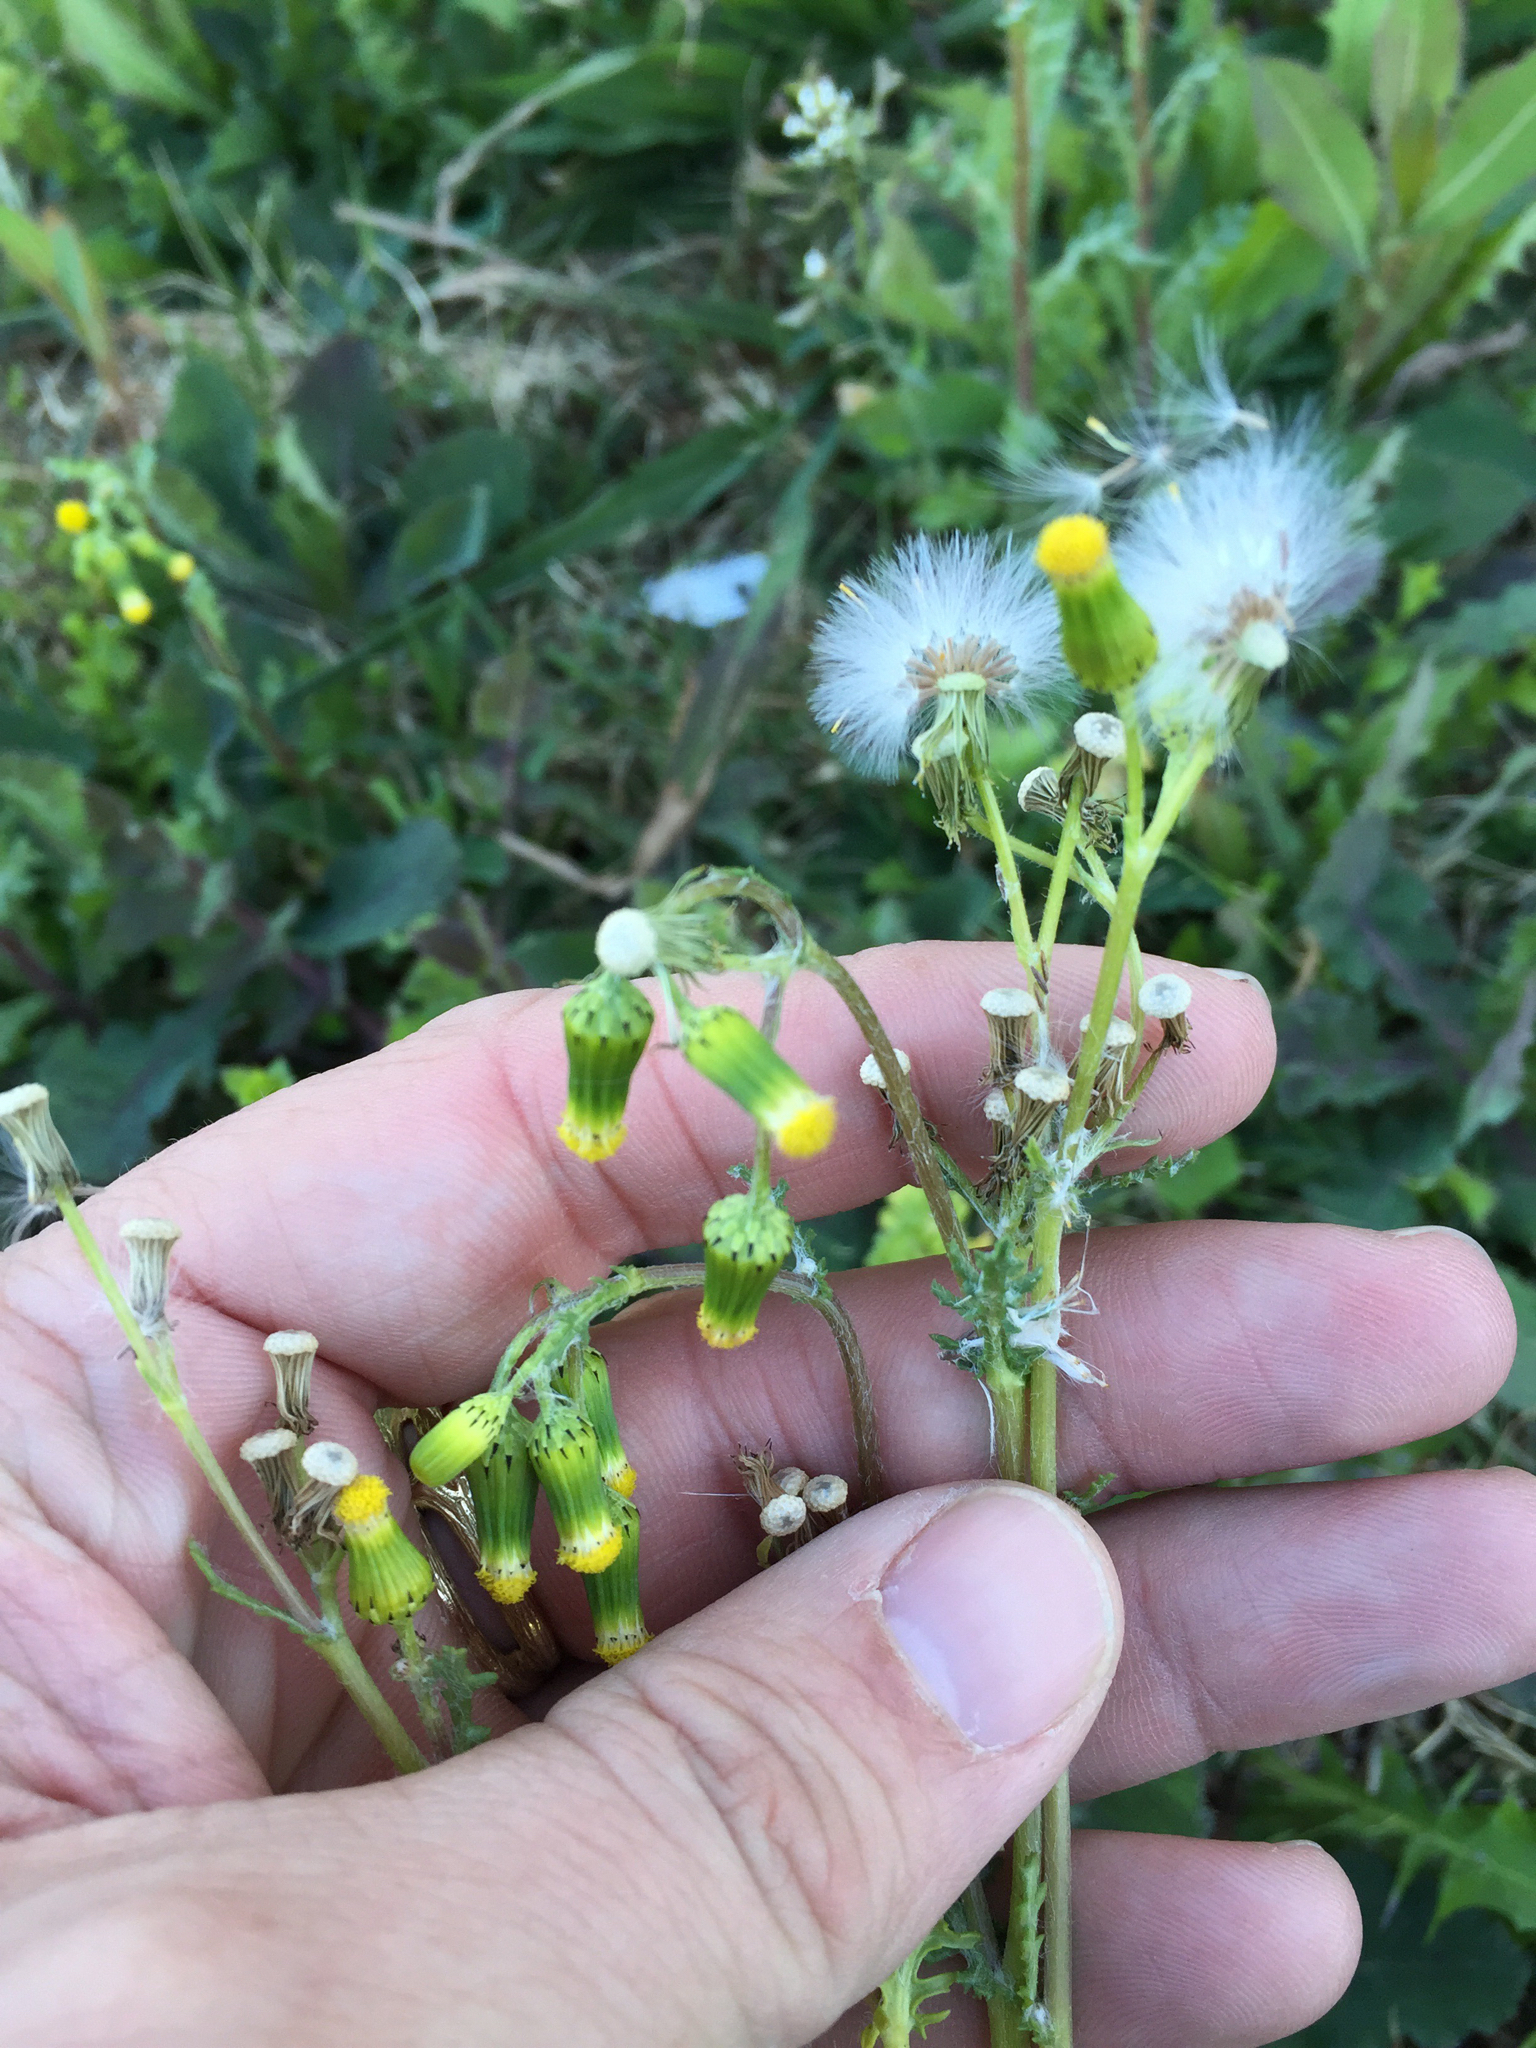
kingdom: Plantae
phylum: Tracheophyta
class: Magnoliopsida
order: Asterales
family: Asteraceae
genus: Senecio
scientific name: Senecio vulgaris
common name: Old-man-in-the-spring
